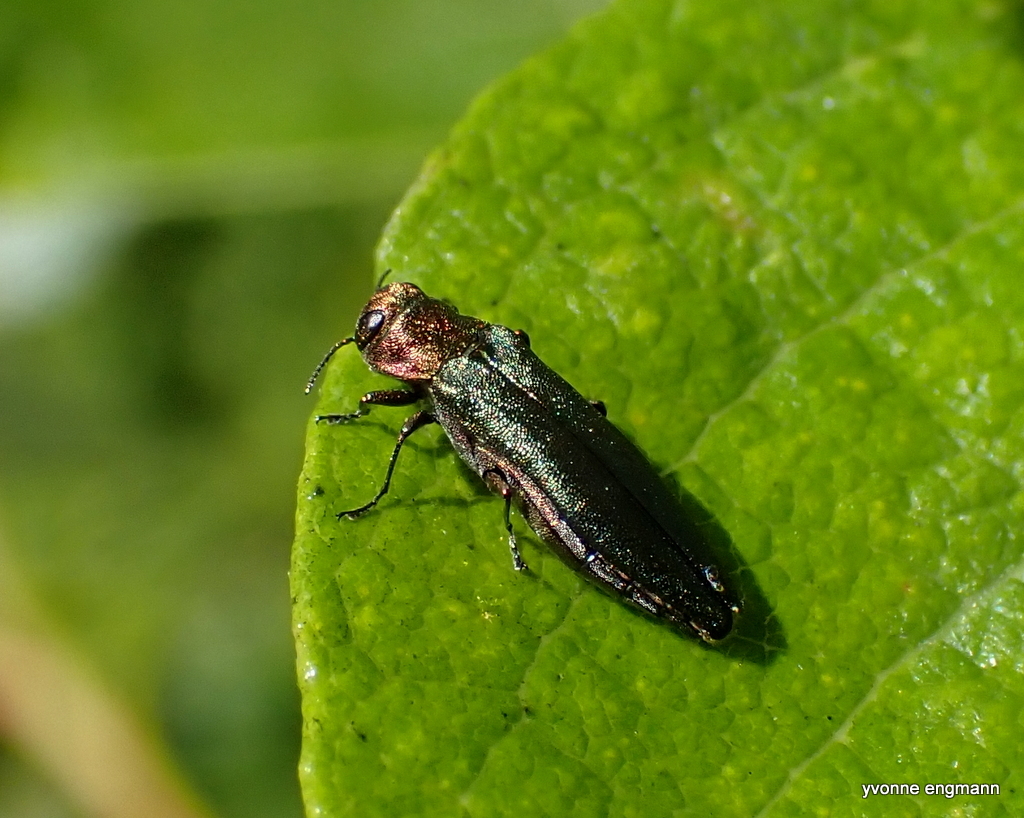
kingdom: Animalia
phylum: Arthropoda
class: Insecta
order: Coleoptera
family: Buprestidae
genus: Agrilus
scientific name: Agrilus viridis
